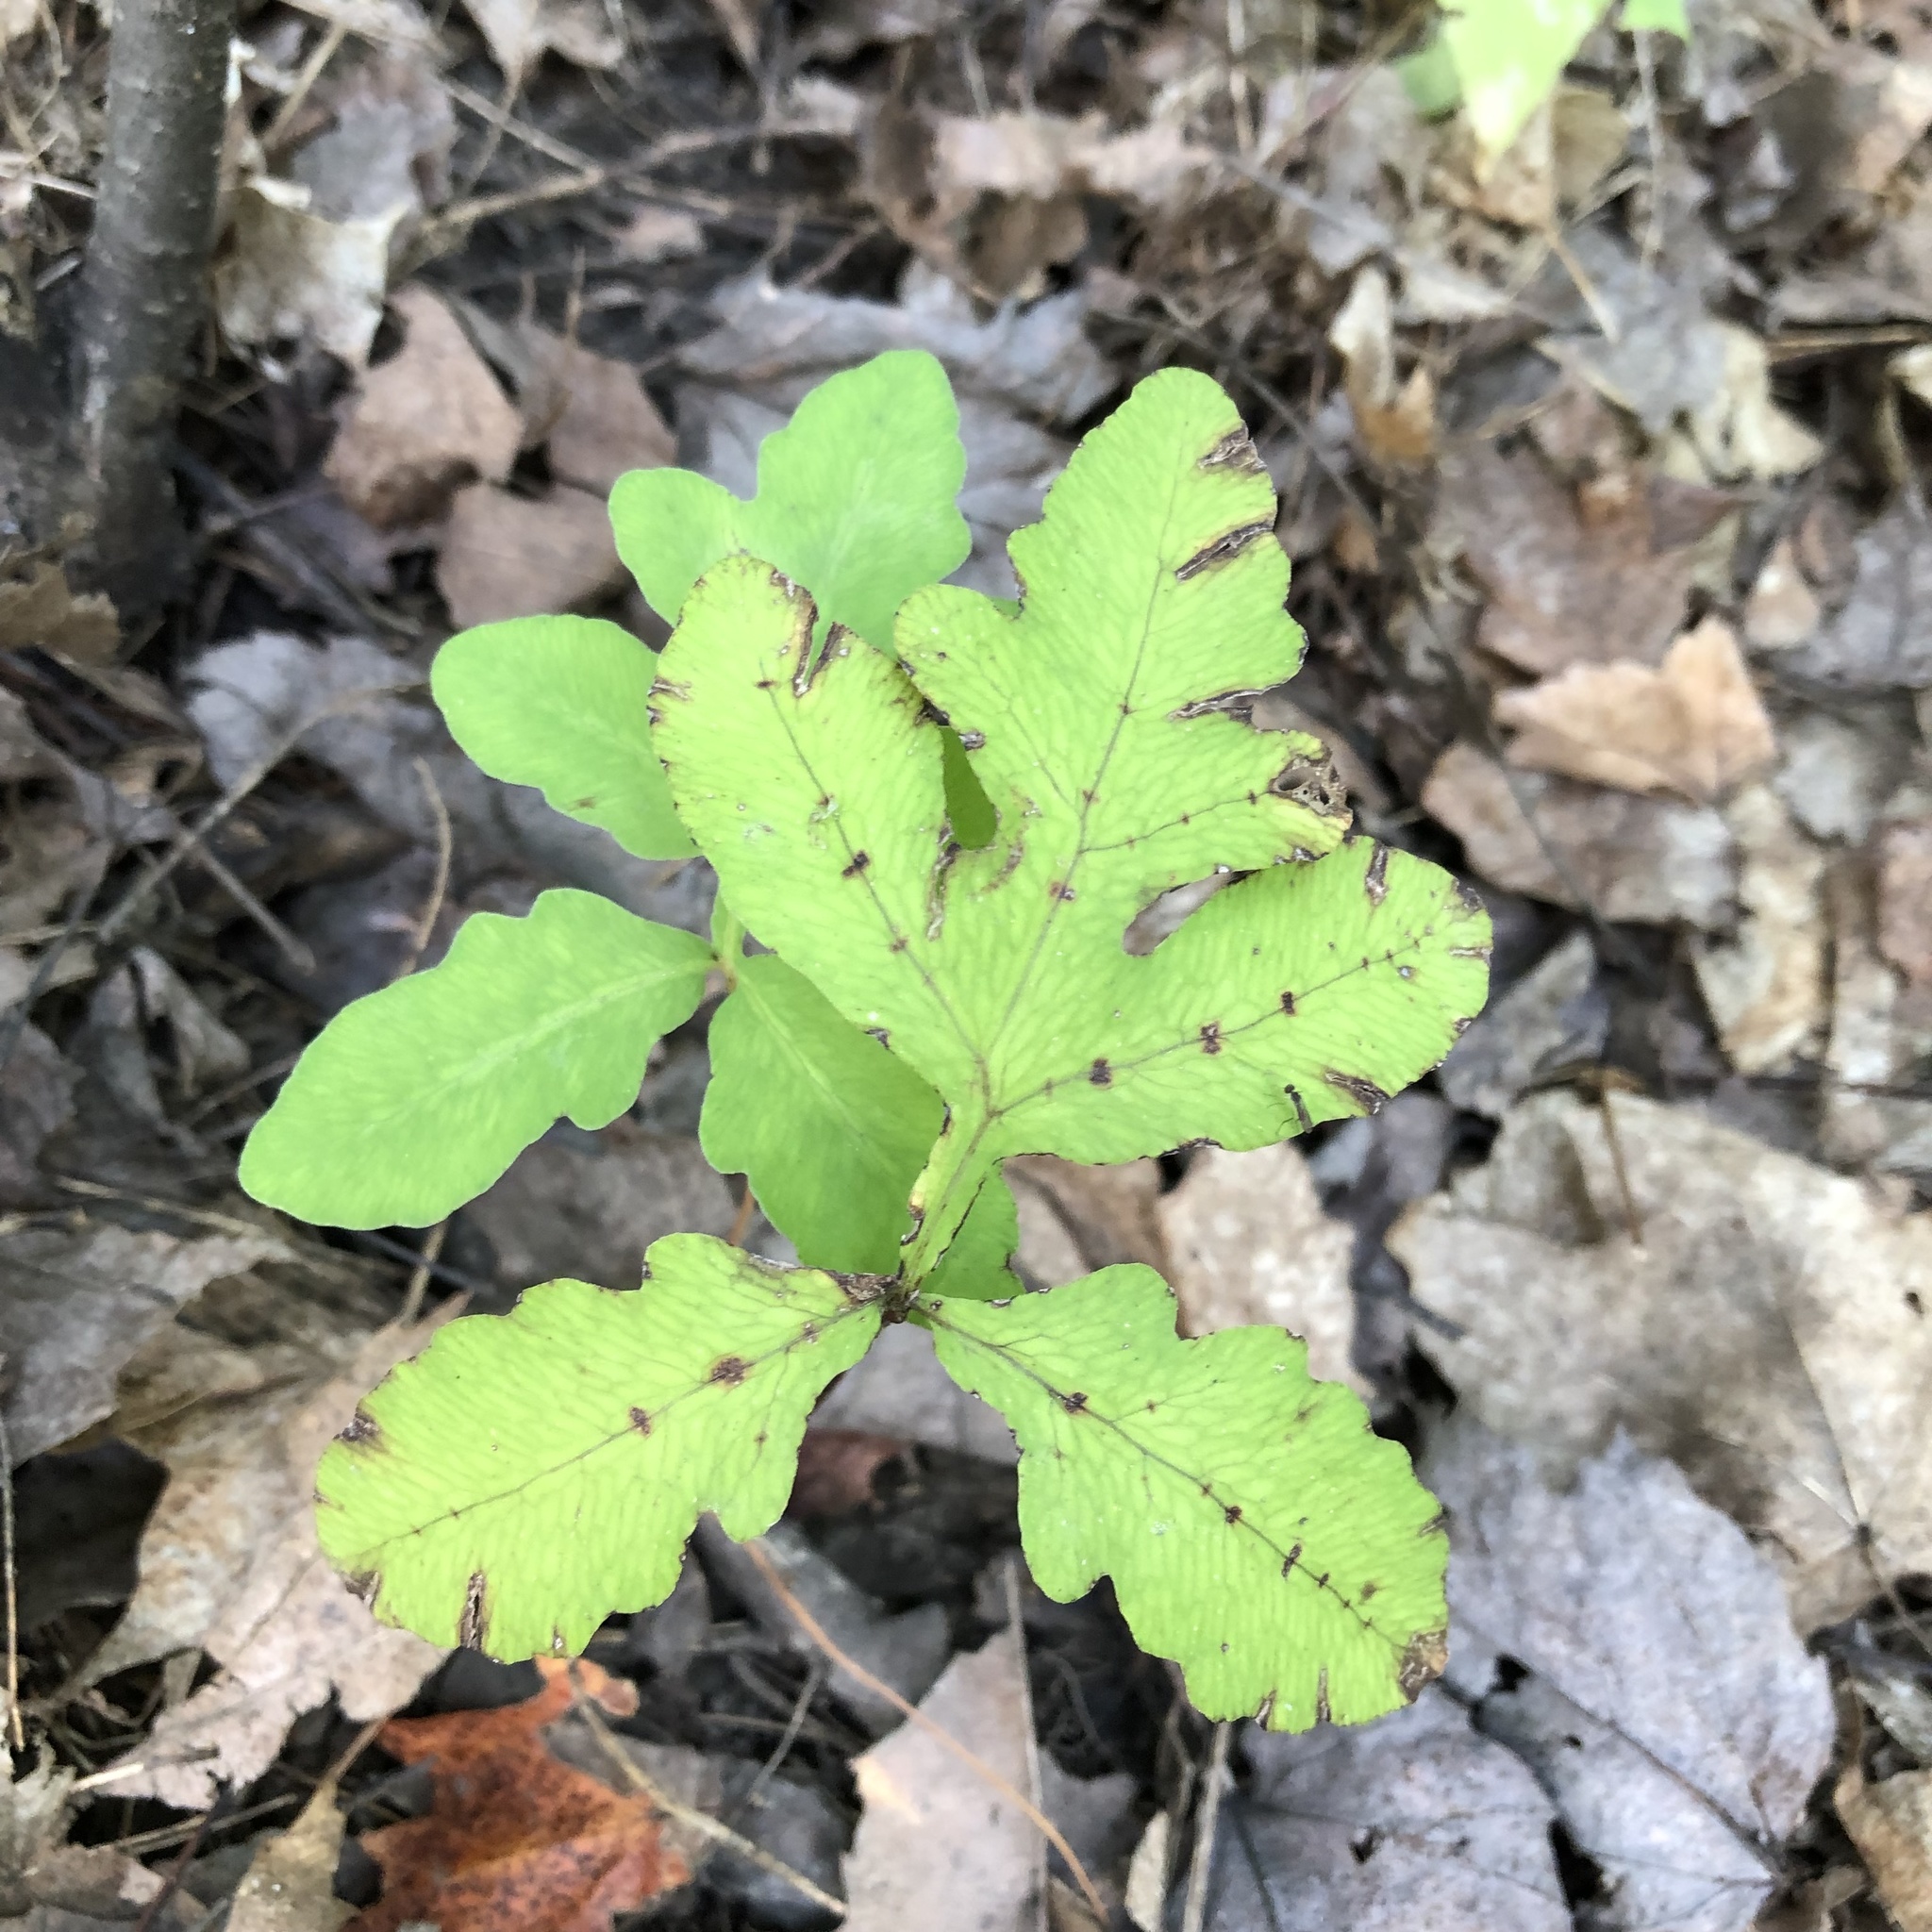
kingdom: Plantae
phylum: Tracheophyta
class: Polypodiopsida
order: Polypodiales
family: Onocleaceae
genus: Onoclea
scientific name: Onoclea sensibilis
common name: Sensitive fern
